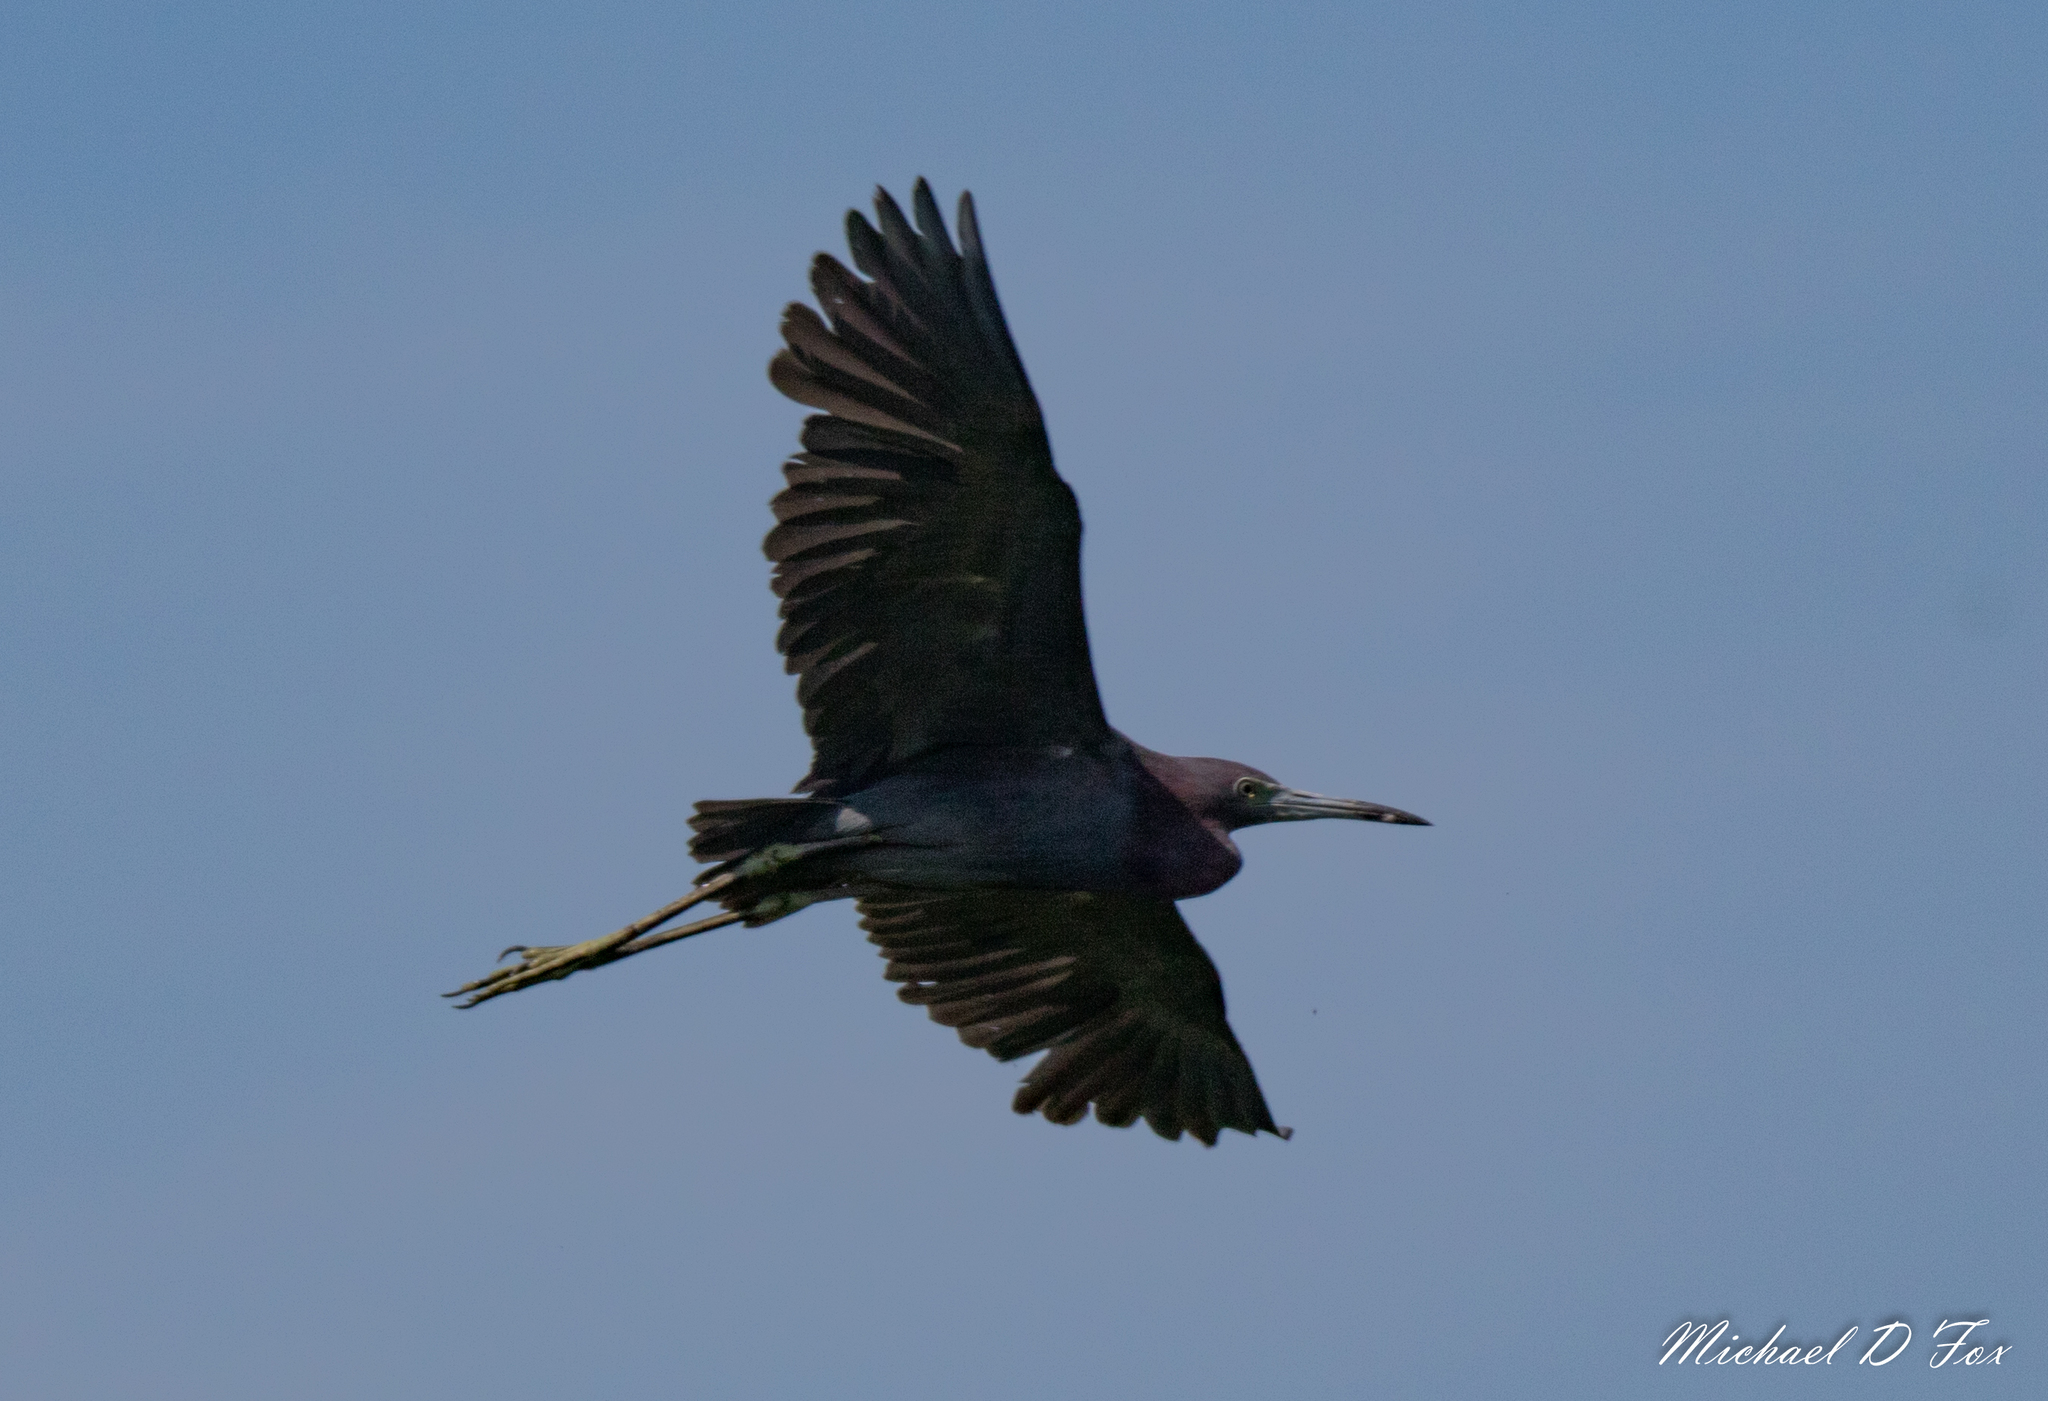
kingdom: Animalia
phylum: Chordata
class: Aves
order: Pelecaniformes
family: Ardeidae
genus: Egretta
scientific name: Egretta caerulea
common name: Little blue heron
